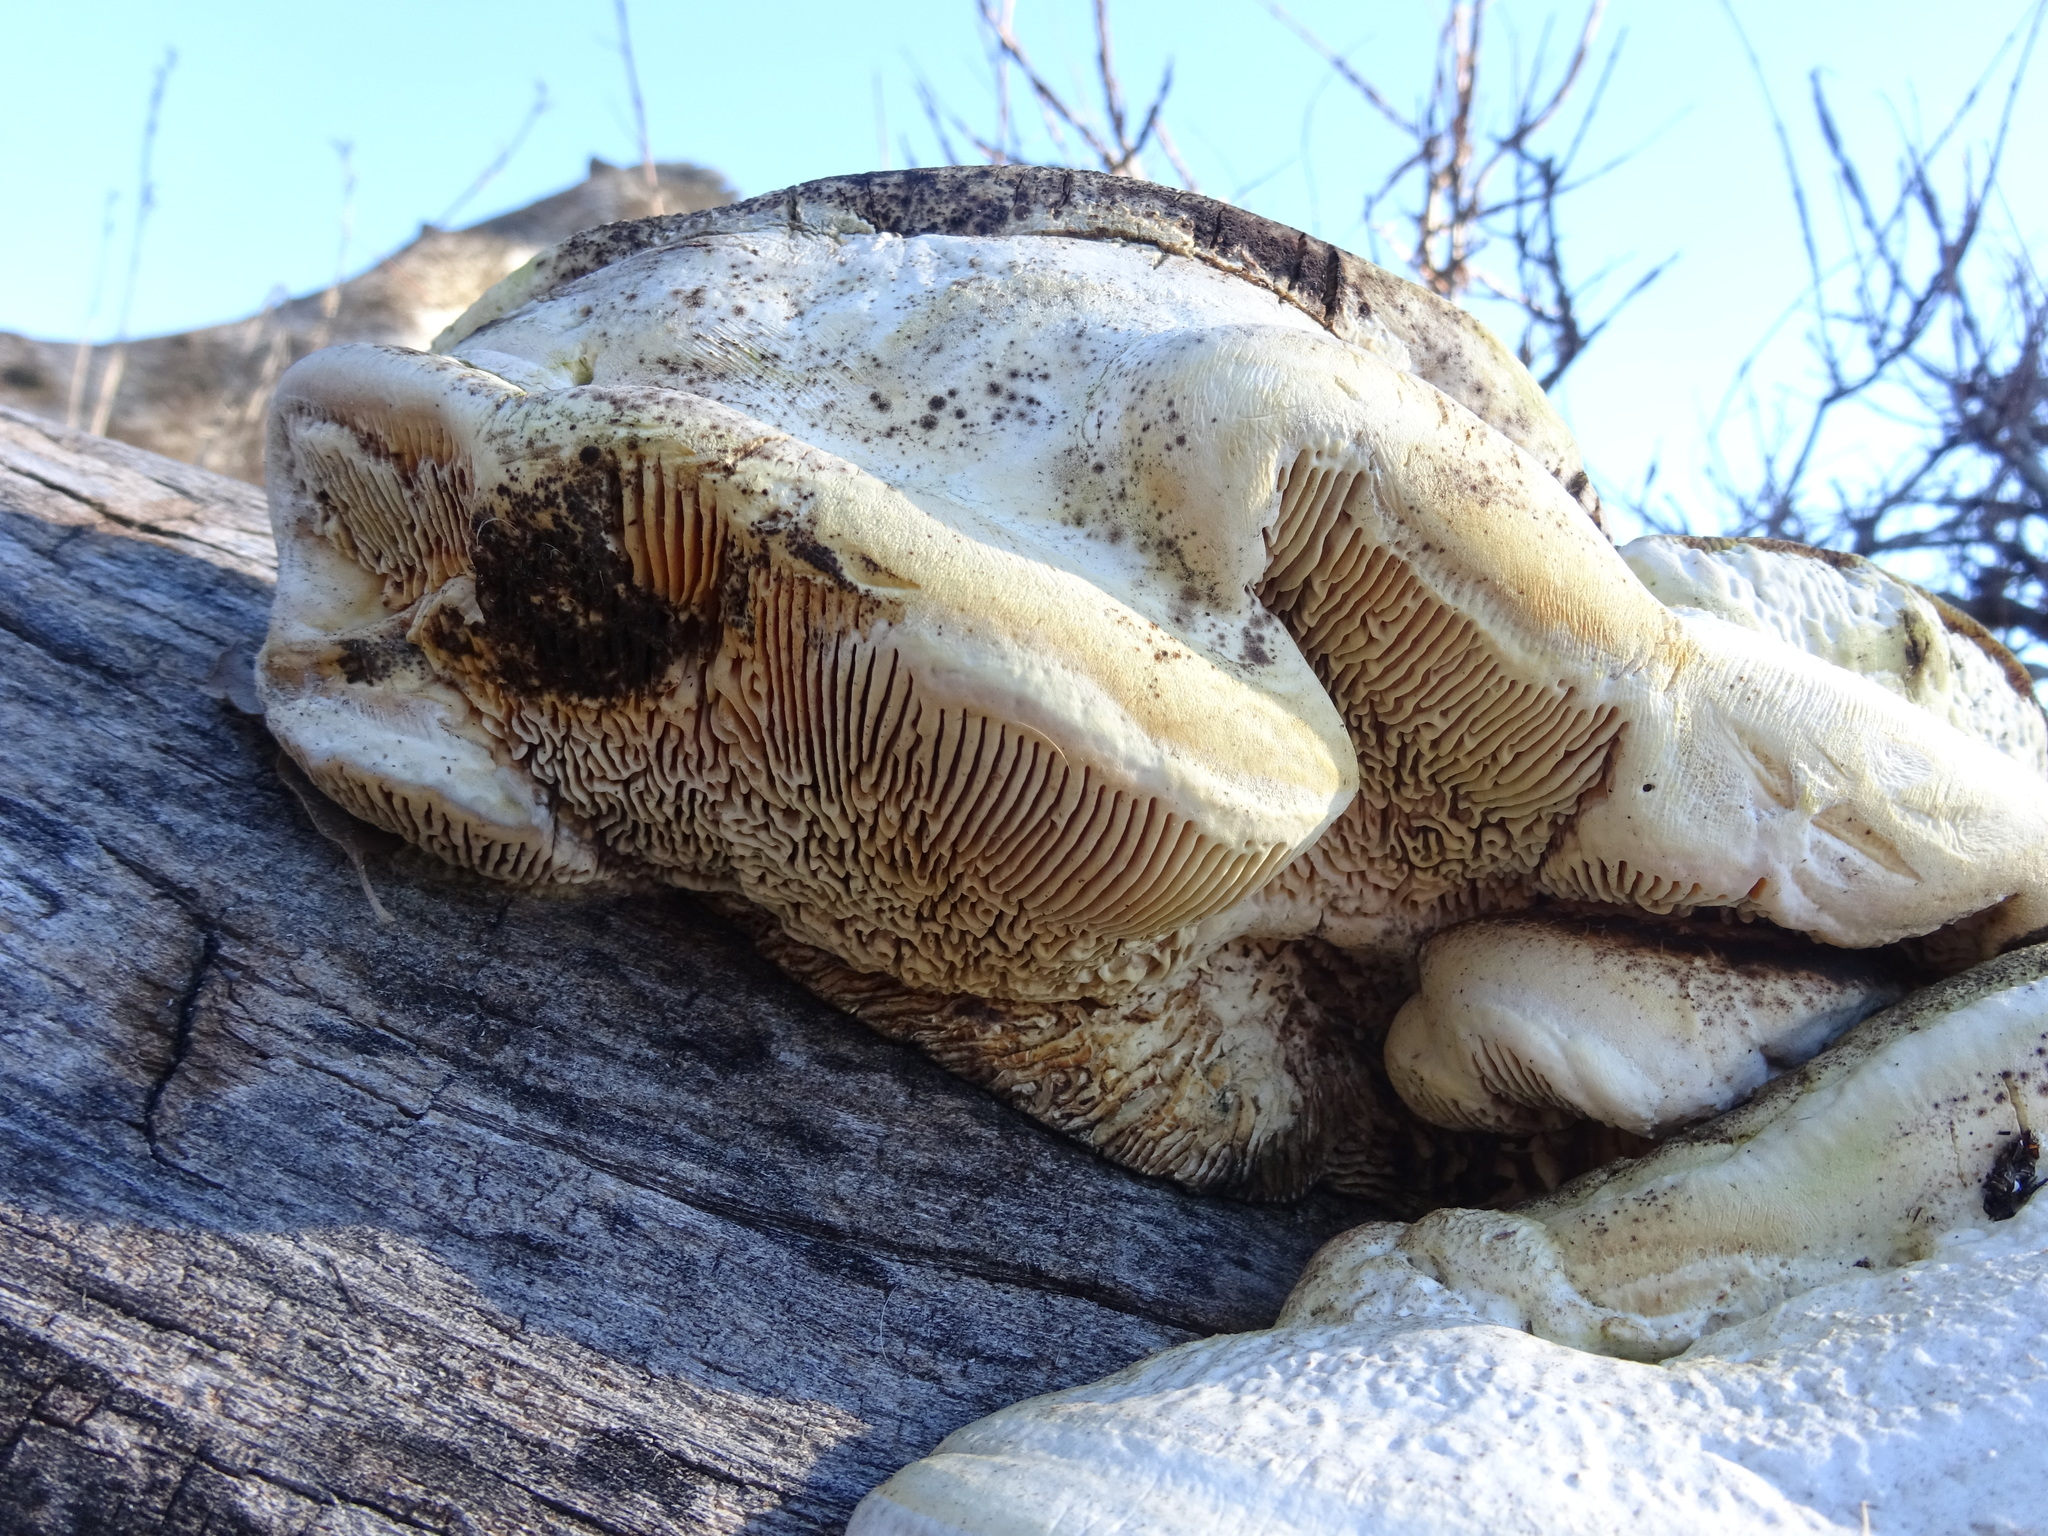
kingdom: Fungi
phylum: Basidiomycota
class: Agaricomycetes
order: Polyporales
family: Polyporaceae
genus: Cellulariella
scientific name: Cellulariella warnieri
